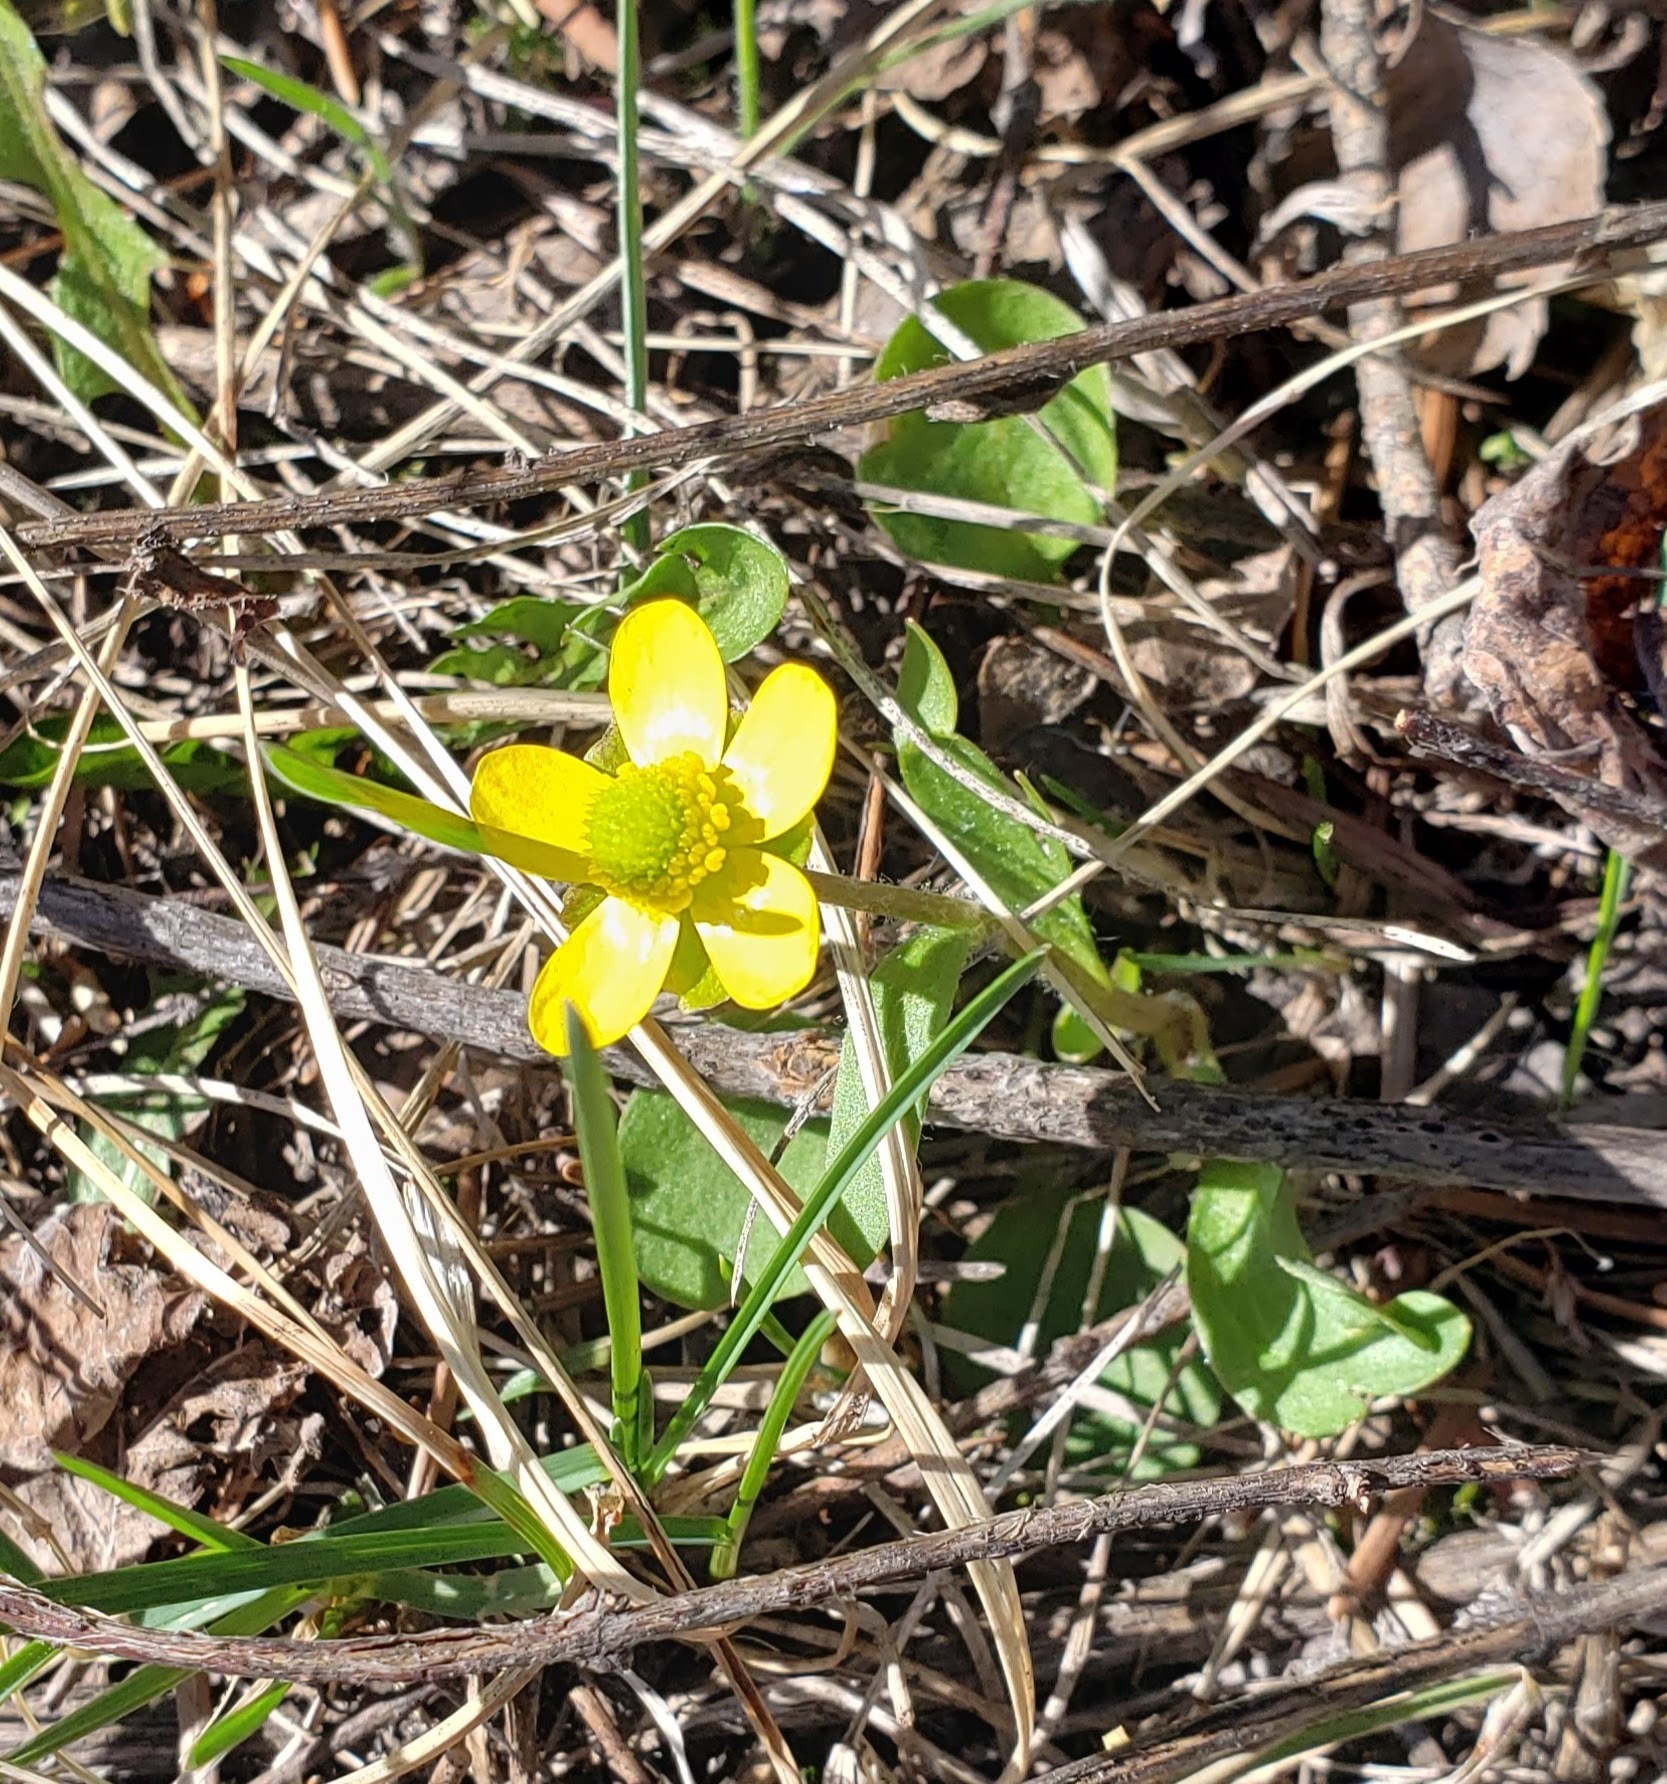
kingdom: Plantae
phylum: Tracheophyta
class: Magnoliopsida
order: Ranunculales
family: Ranunculaceae
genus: Ranunculus
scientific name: Ranunculus glaberrimus
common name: Sagebrush buttercup
